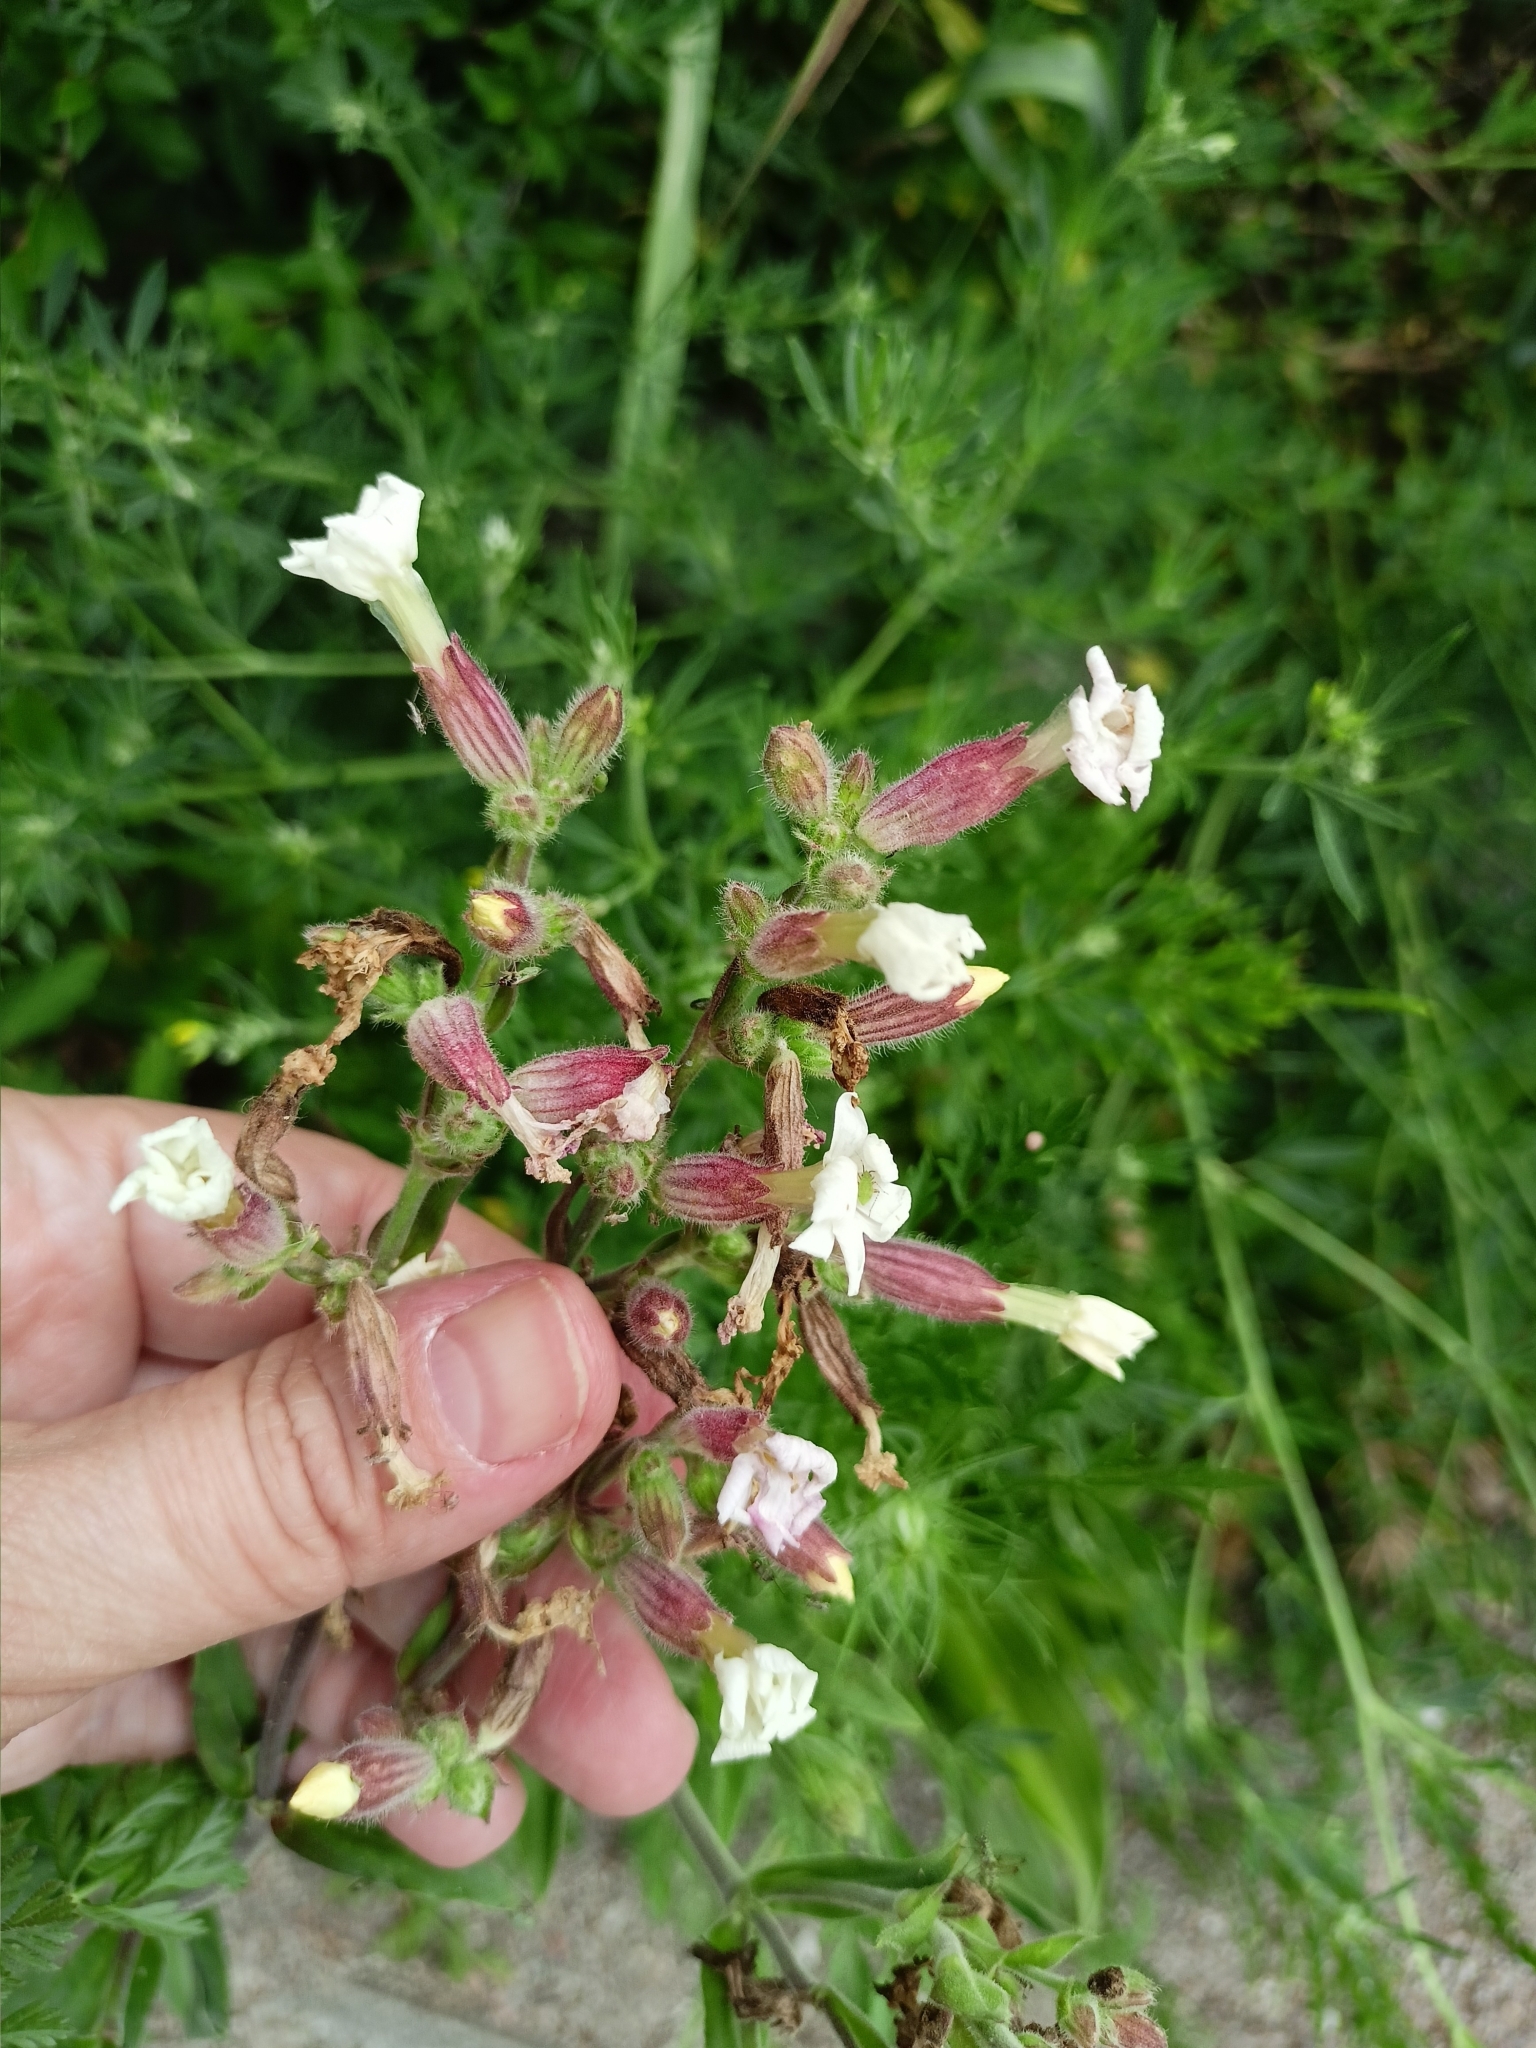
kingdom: Plantae
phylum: Tracheophyta
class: Magnoliopsida
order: Caryophyllales
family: Caryophyllaceae
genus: Silene
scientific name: Silene latifolia
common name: White campion
